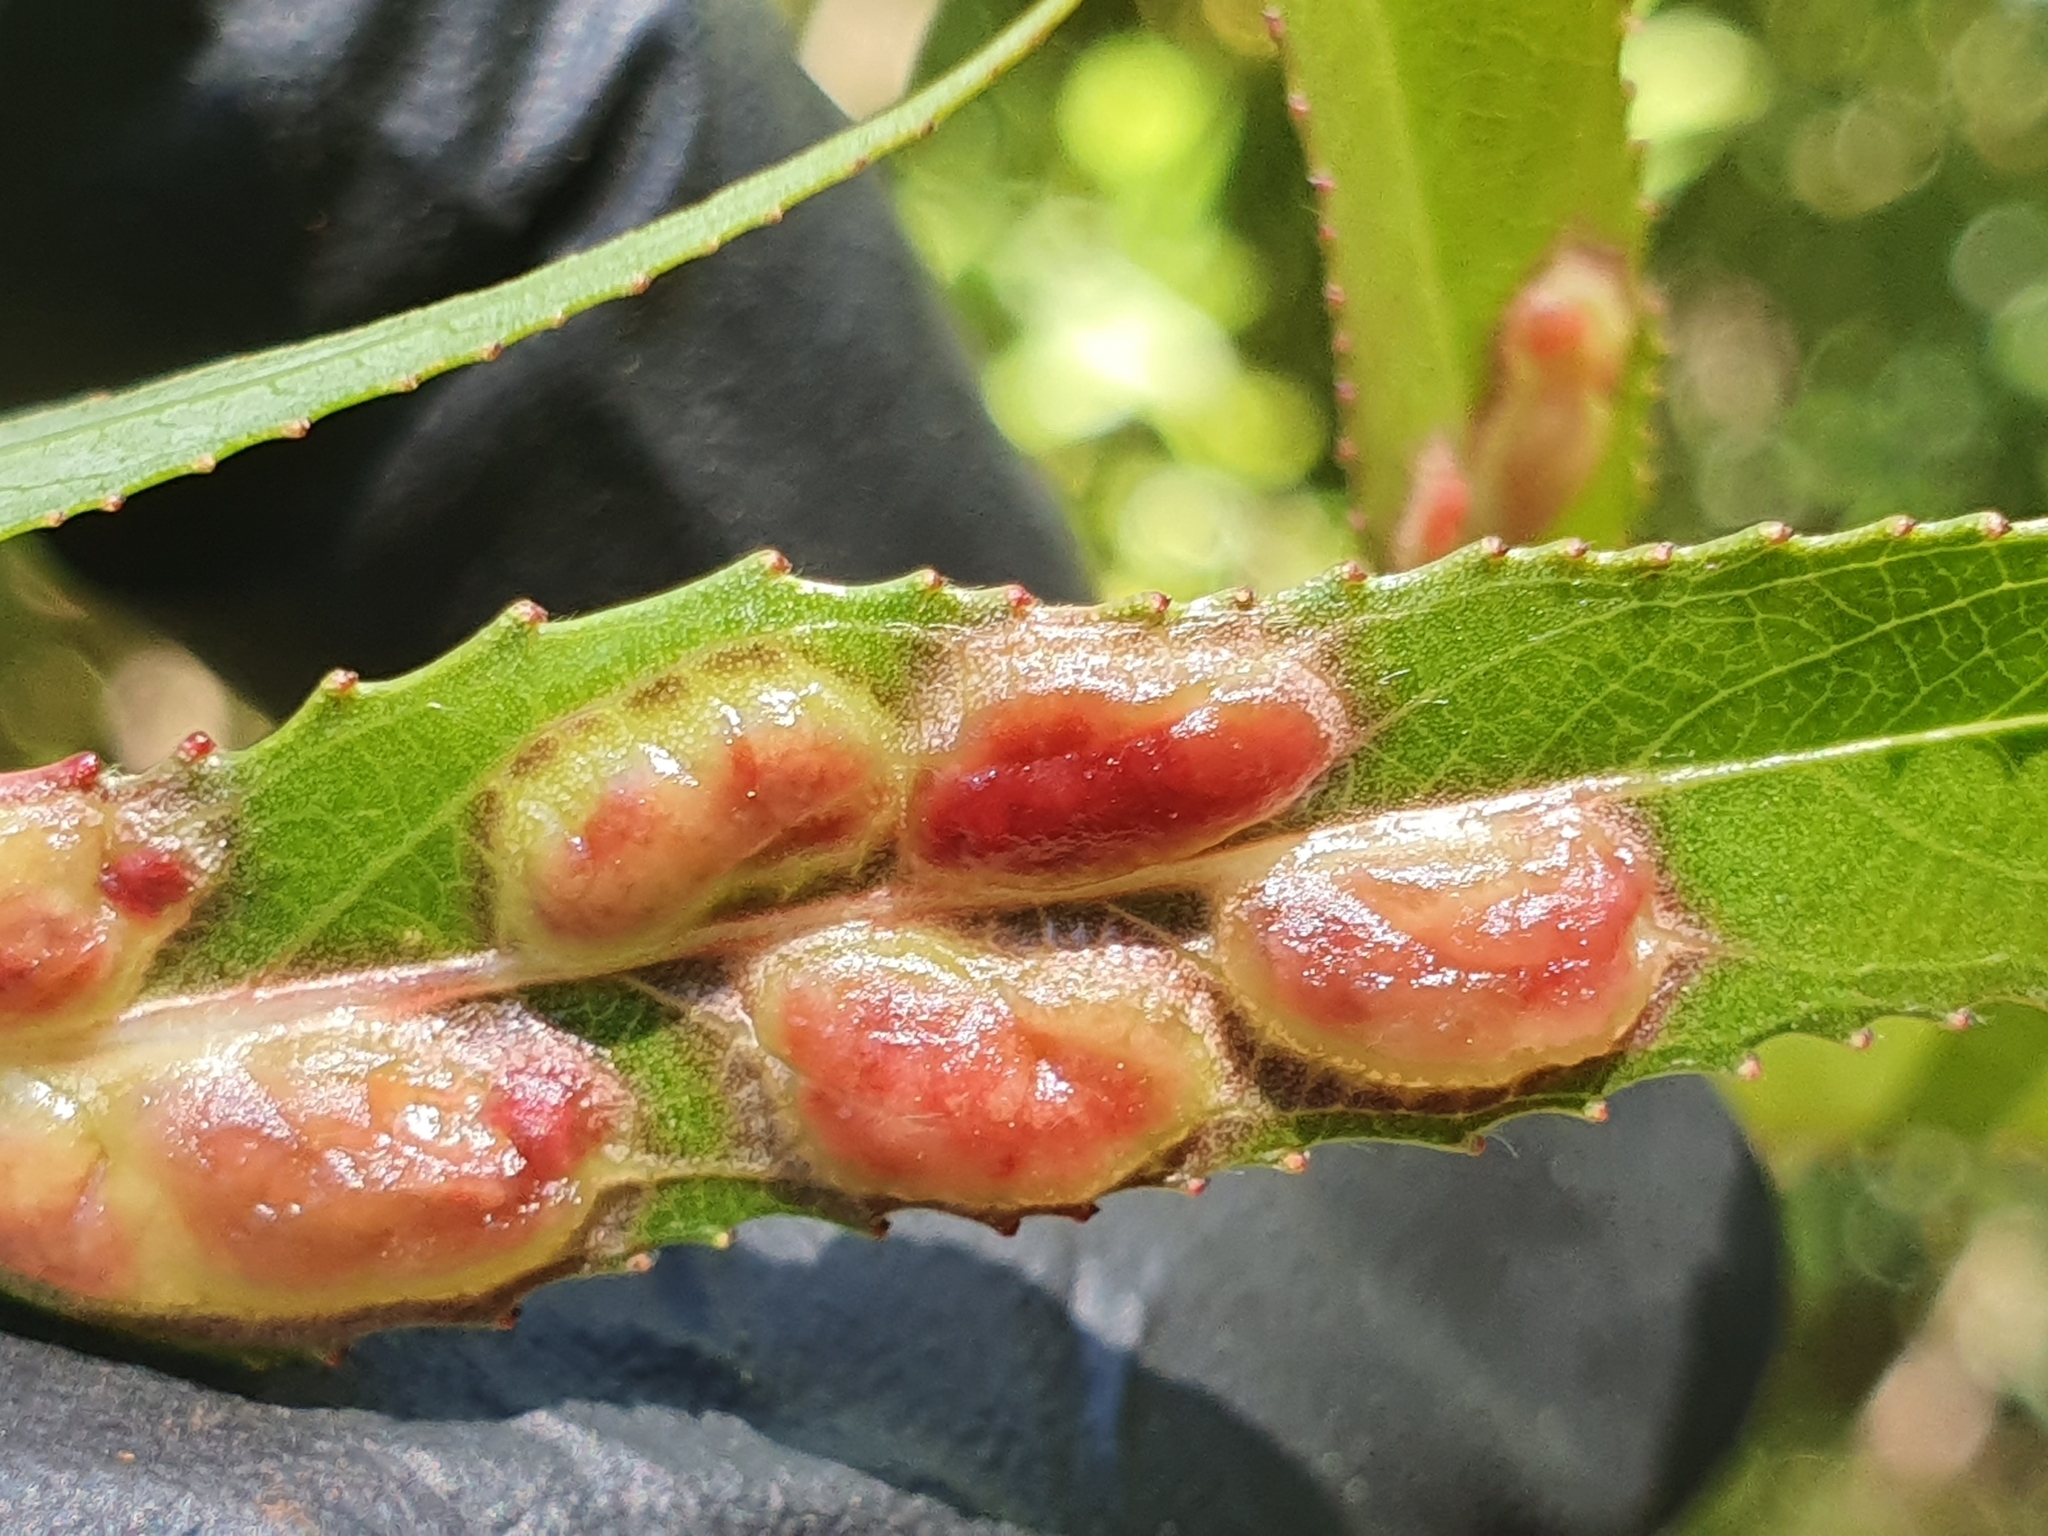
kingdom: Animalia
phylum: Arthropoda
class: Insecta
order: Hymenoptera
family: Tenthredinidae
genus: Pontania
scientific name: Pontania proxima
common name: Common sawfly
